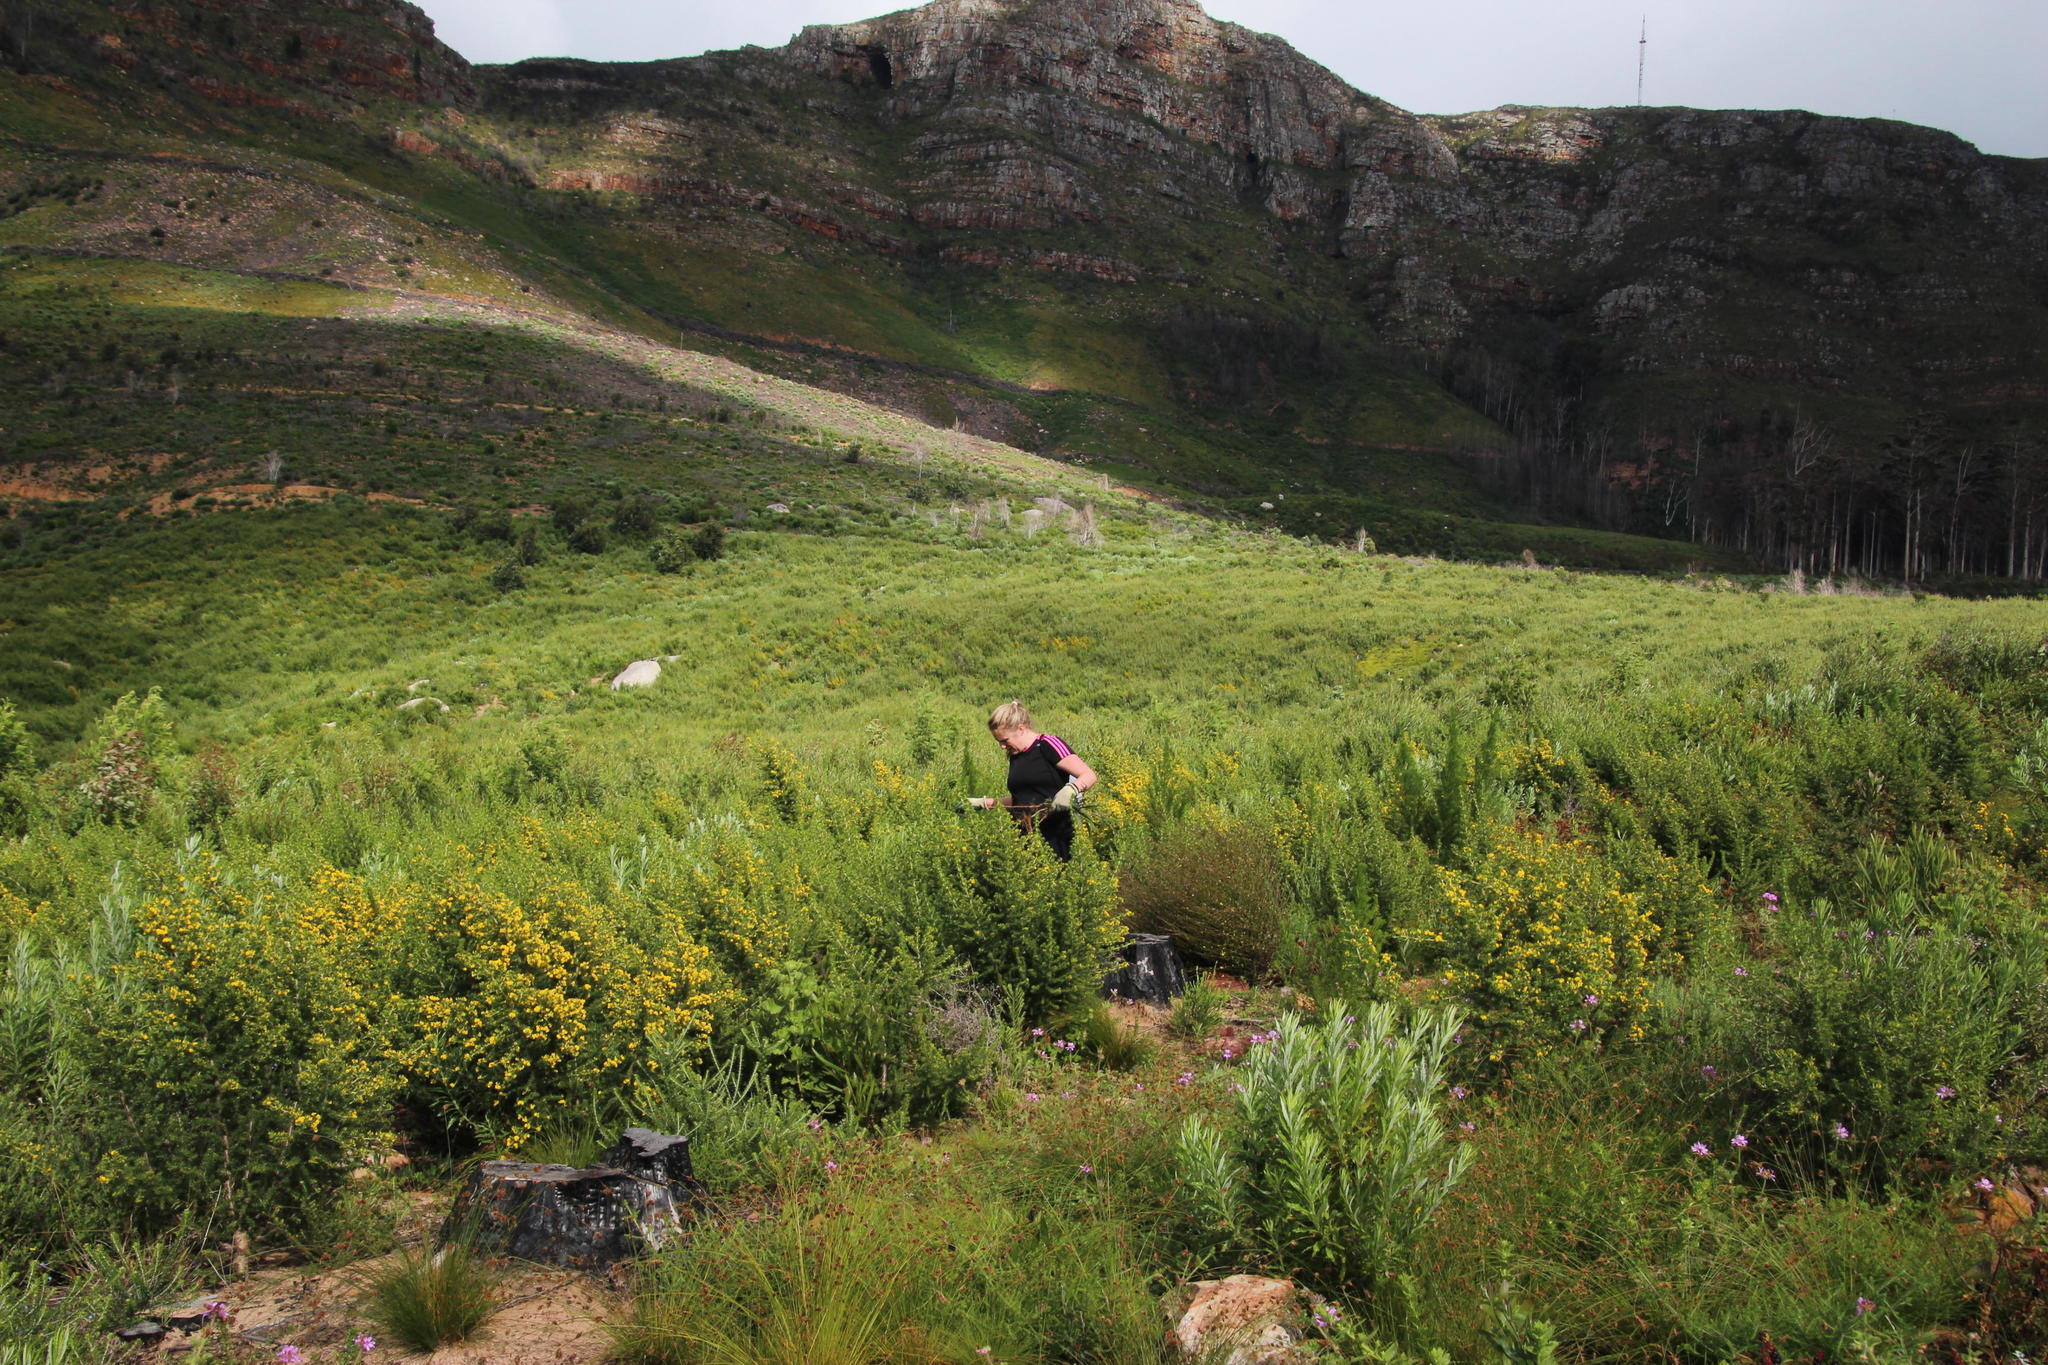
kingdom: Plantae
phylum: Tracheophyta
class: Magnoliopsida
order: Fabales
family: Fabaceae
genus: Aspalathus
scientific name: Aspalathus astroites
